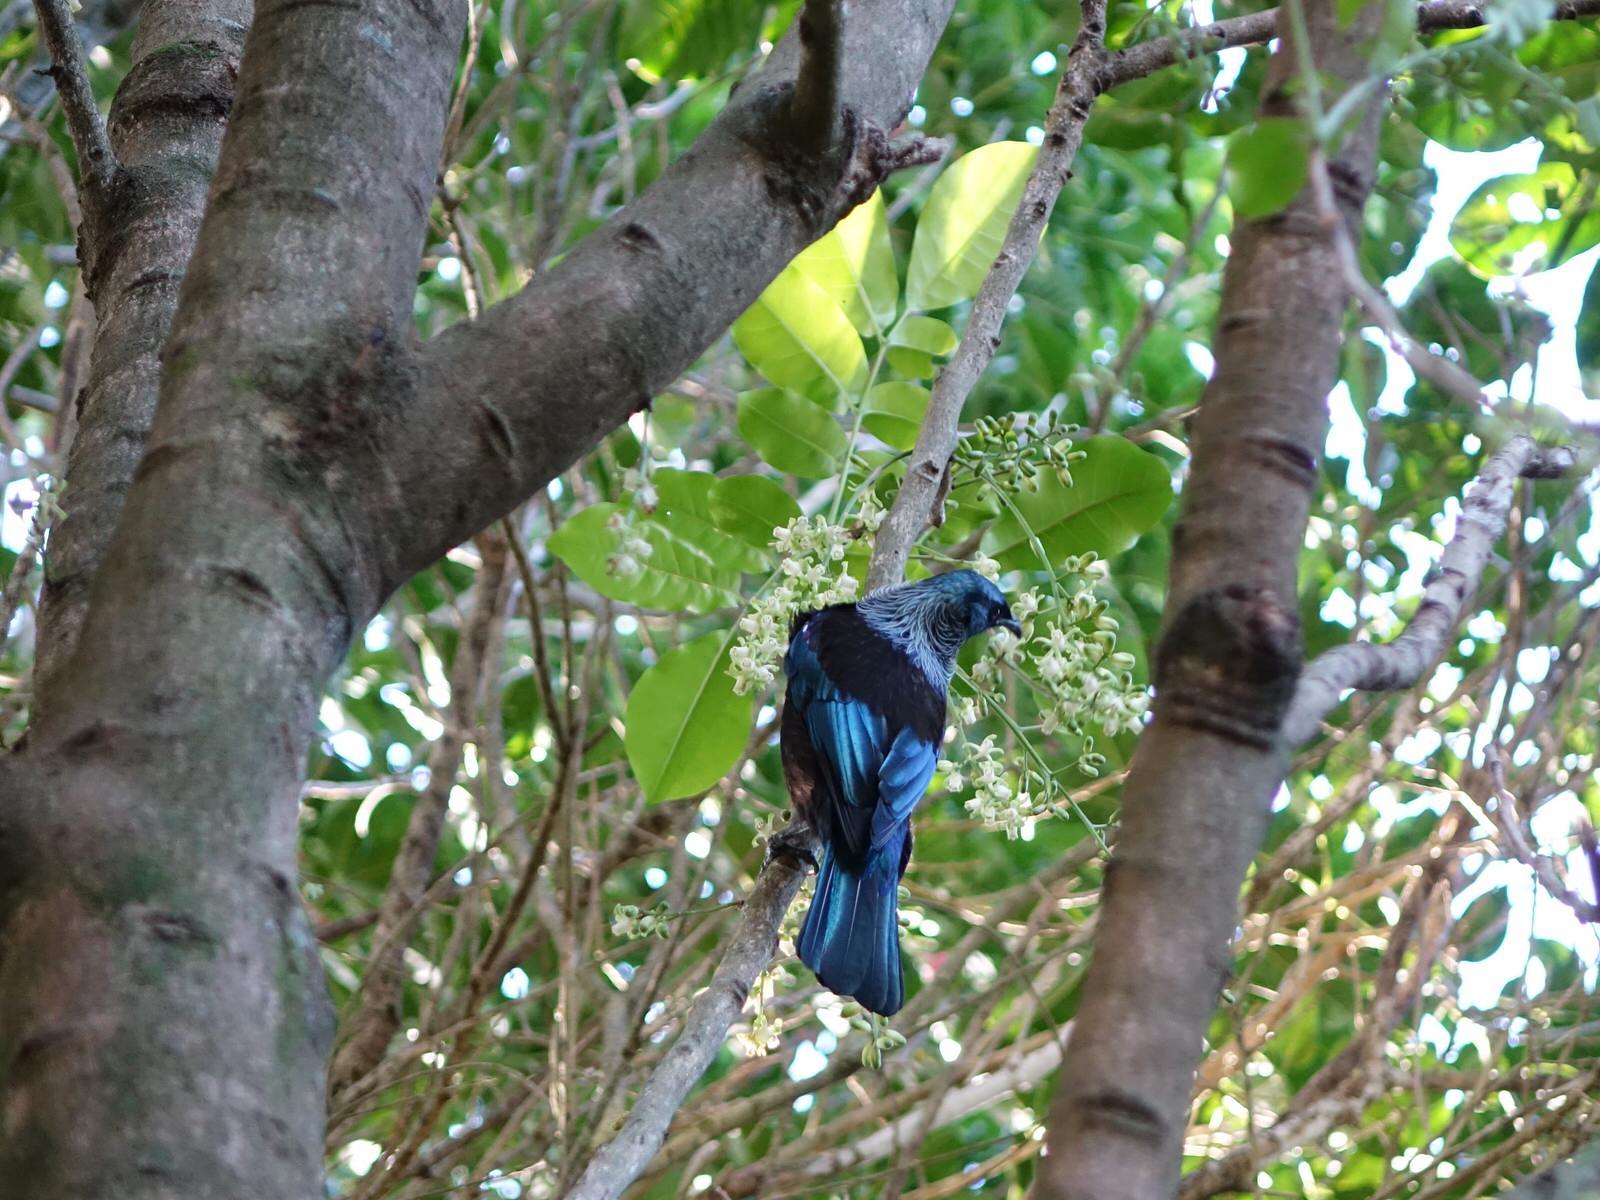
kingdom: Animalia
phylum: Chordata
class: Aves
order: Passeriformes
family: Meliphagidae
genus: Prosthemadera
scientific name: Prosthemadera novaeseelandiae
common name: Tui
